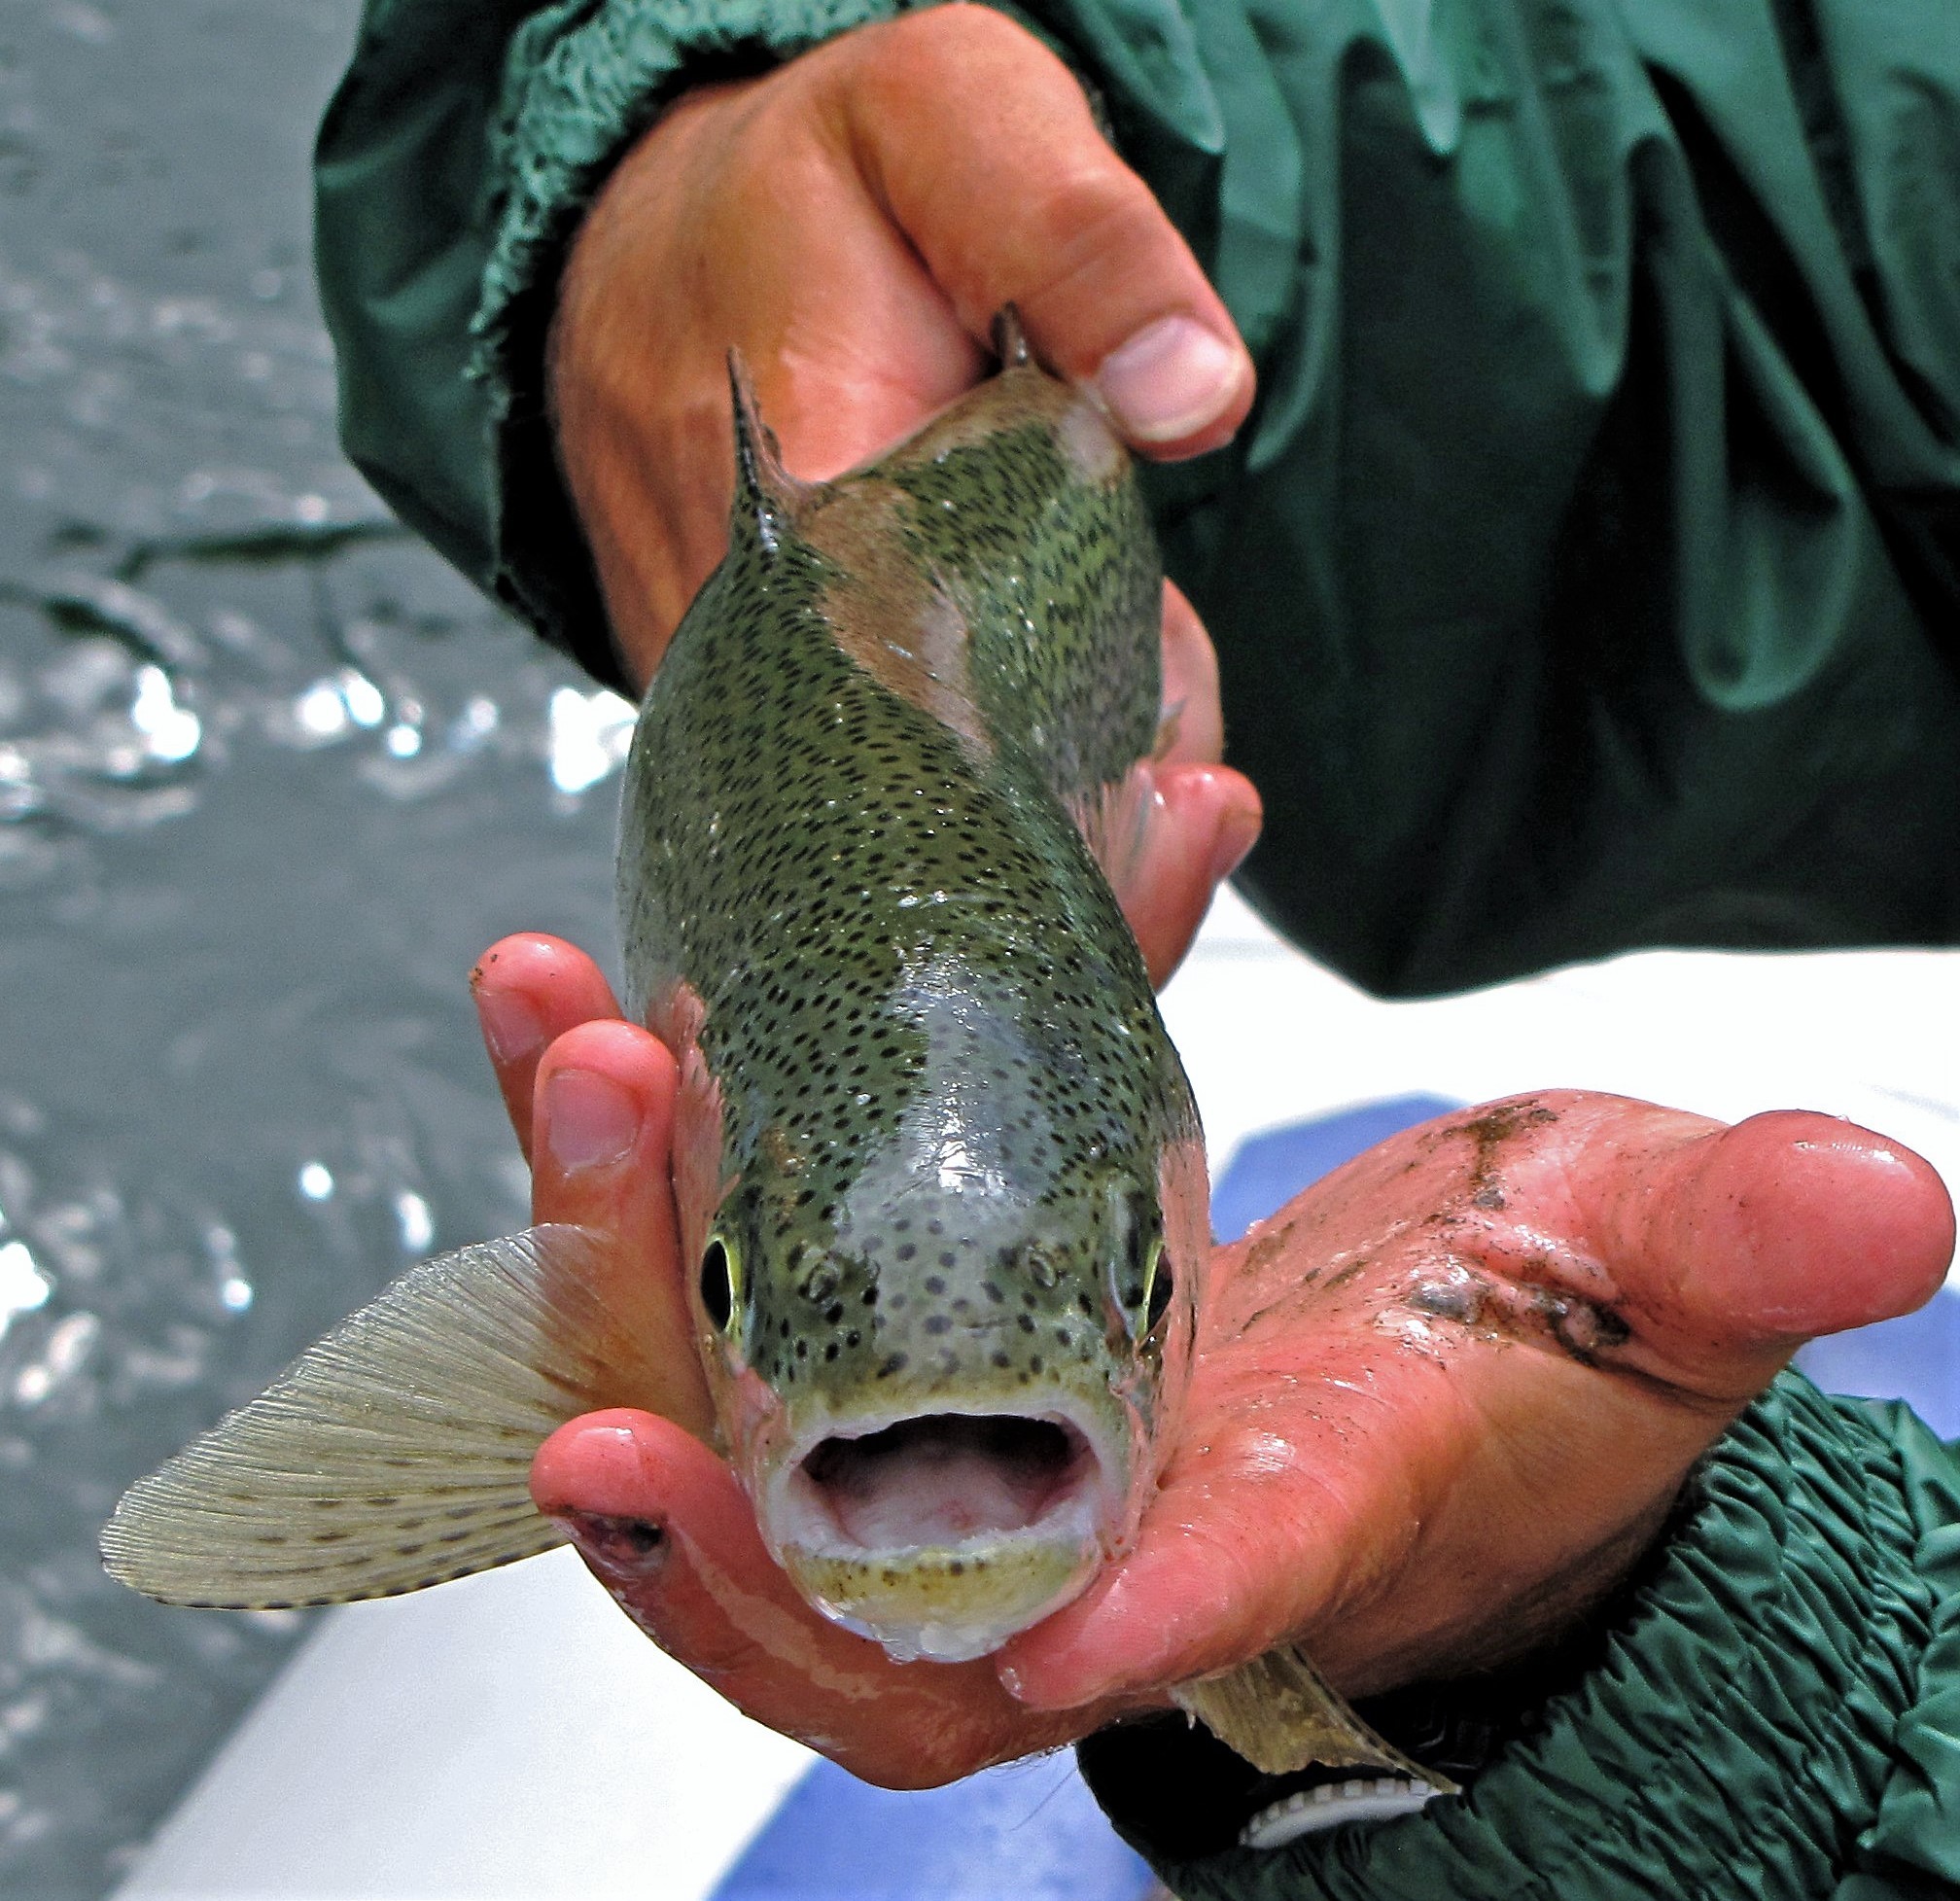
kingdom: Animalia
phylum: Chordata
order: Salmoniformes
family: Salmonidae
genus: Oncorhynchus
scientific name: Oncorhynchus mykiss
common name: Rainbow trout
